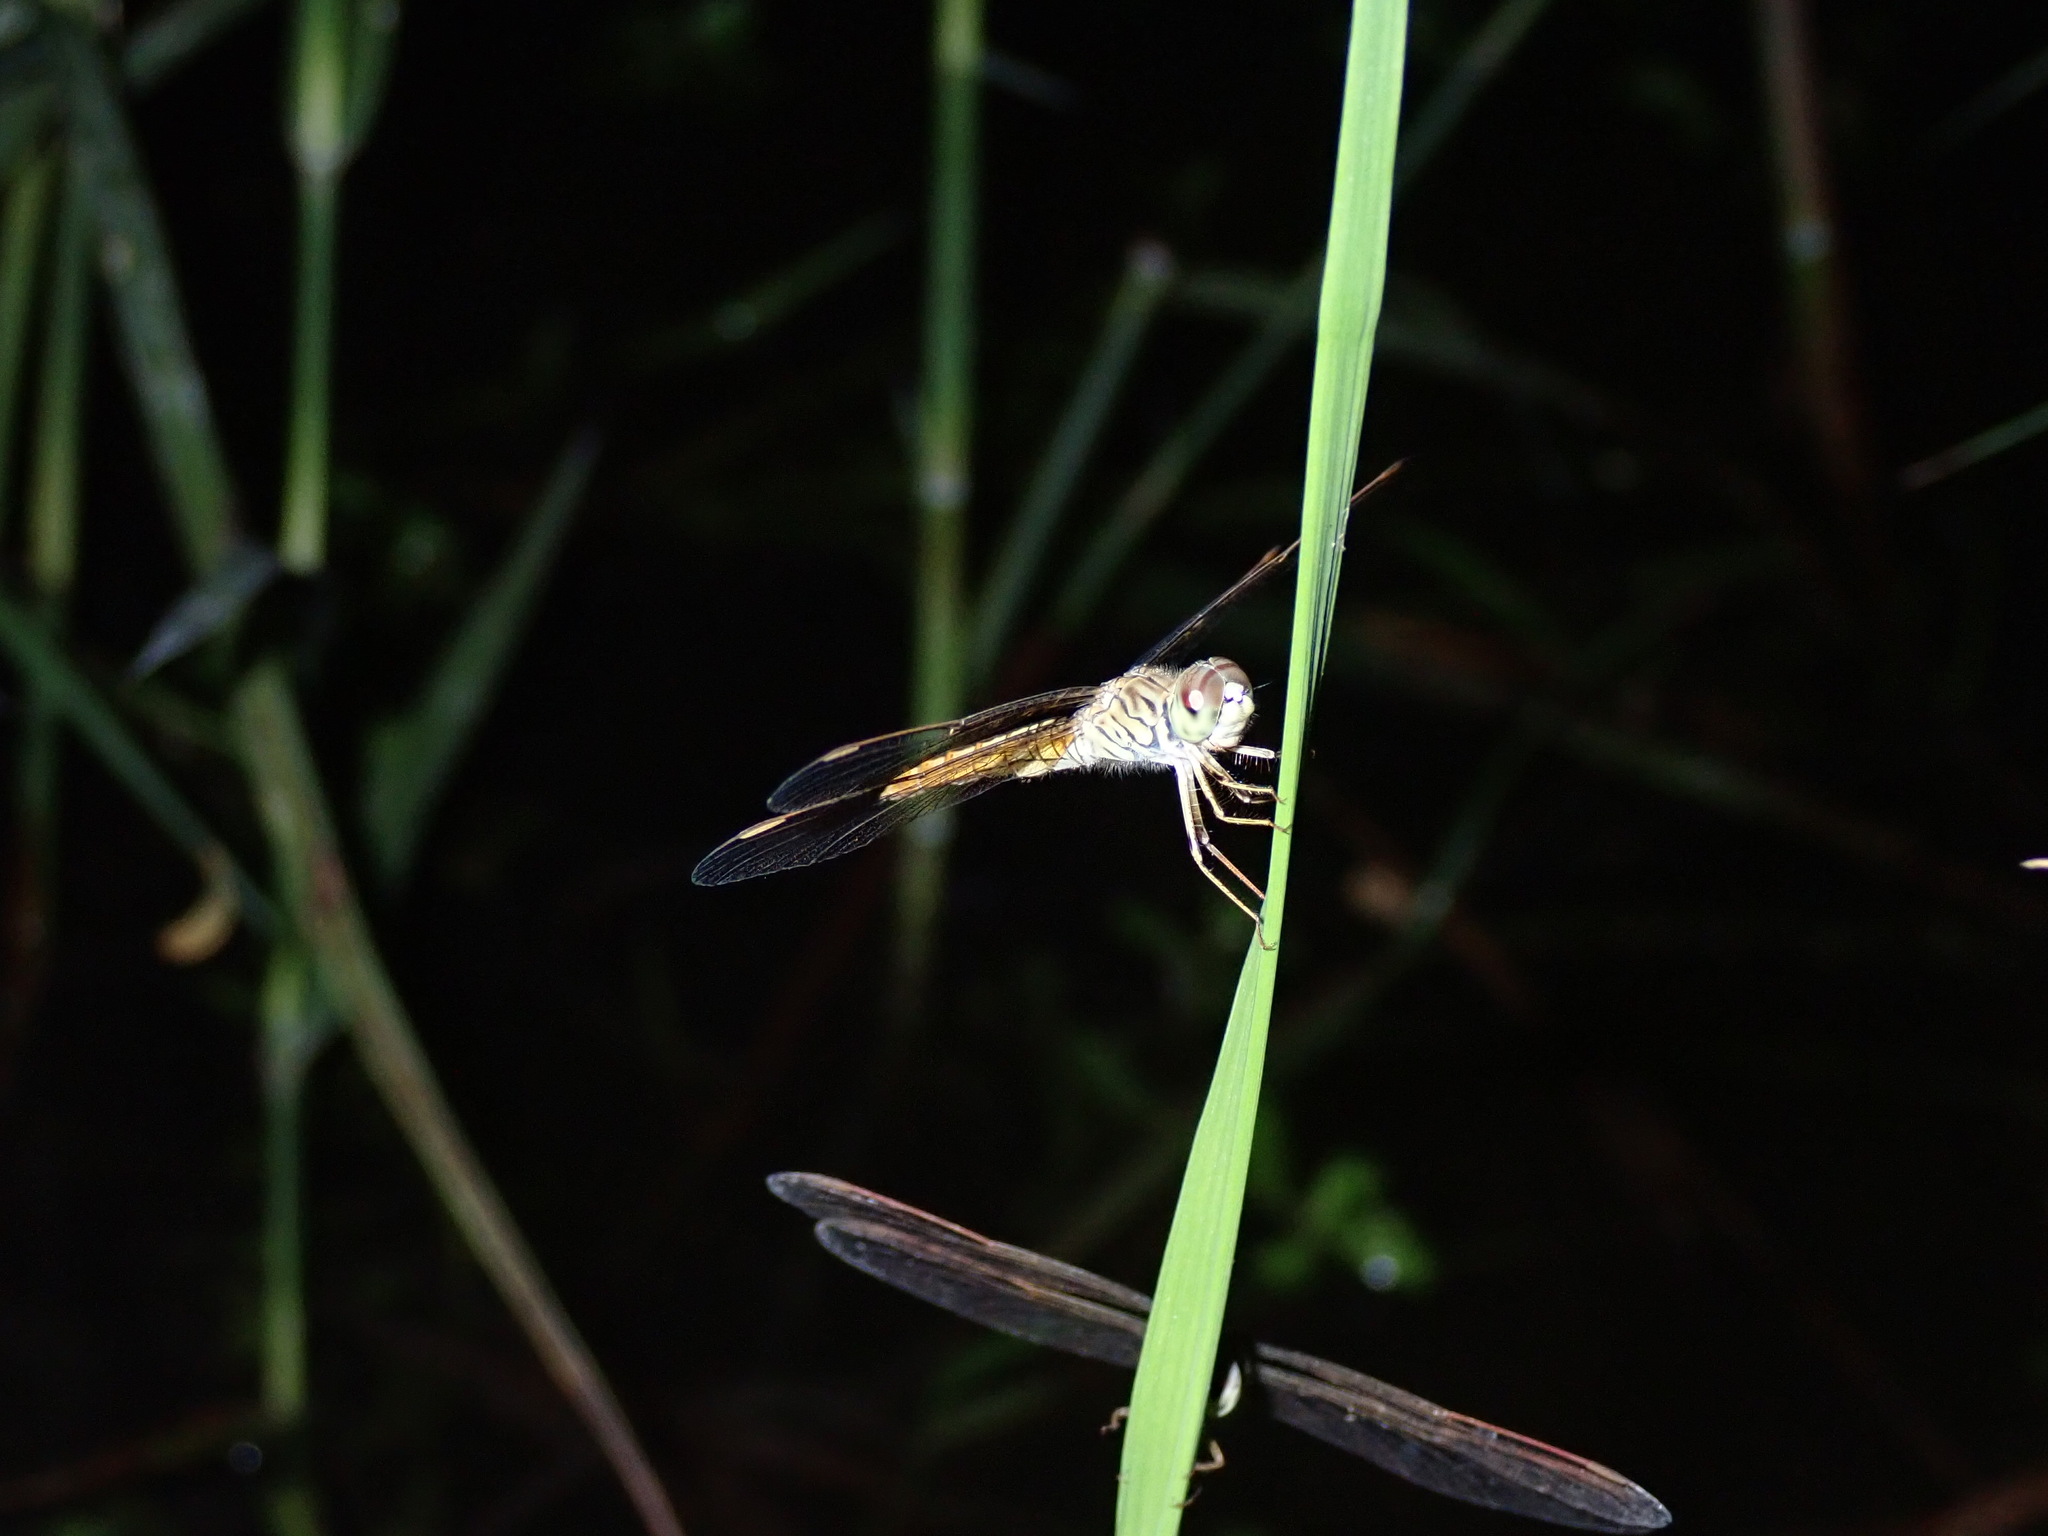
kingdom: Animalia
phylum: Arthropoda
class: Insecta
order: Odonata
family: Libellulidae
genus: Brachythemis
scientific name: Brachythemis contaminata
